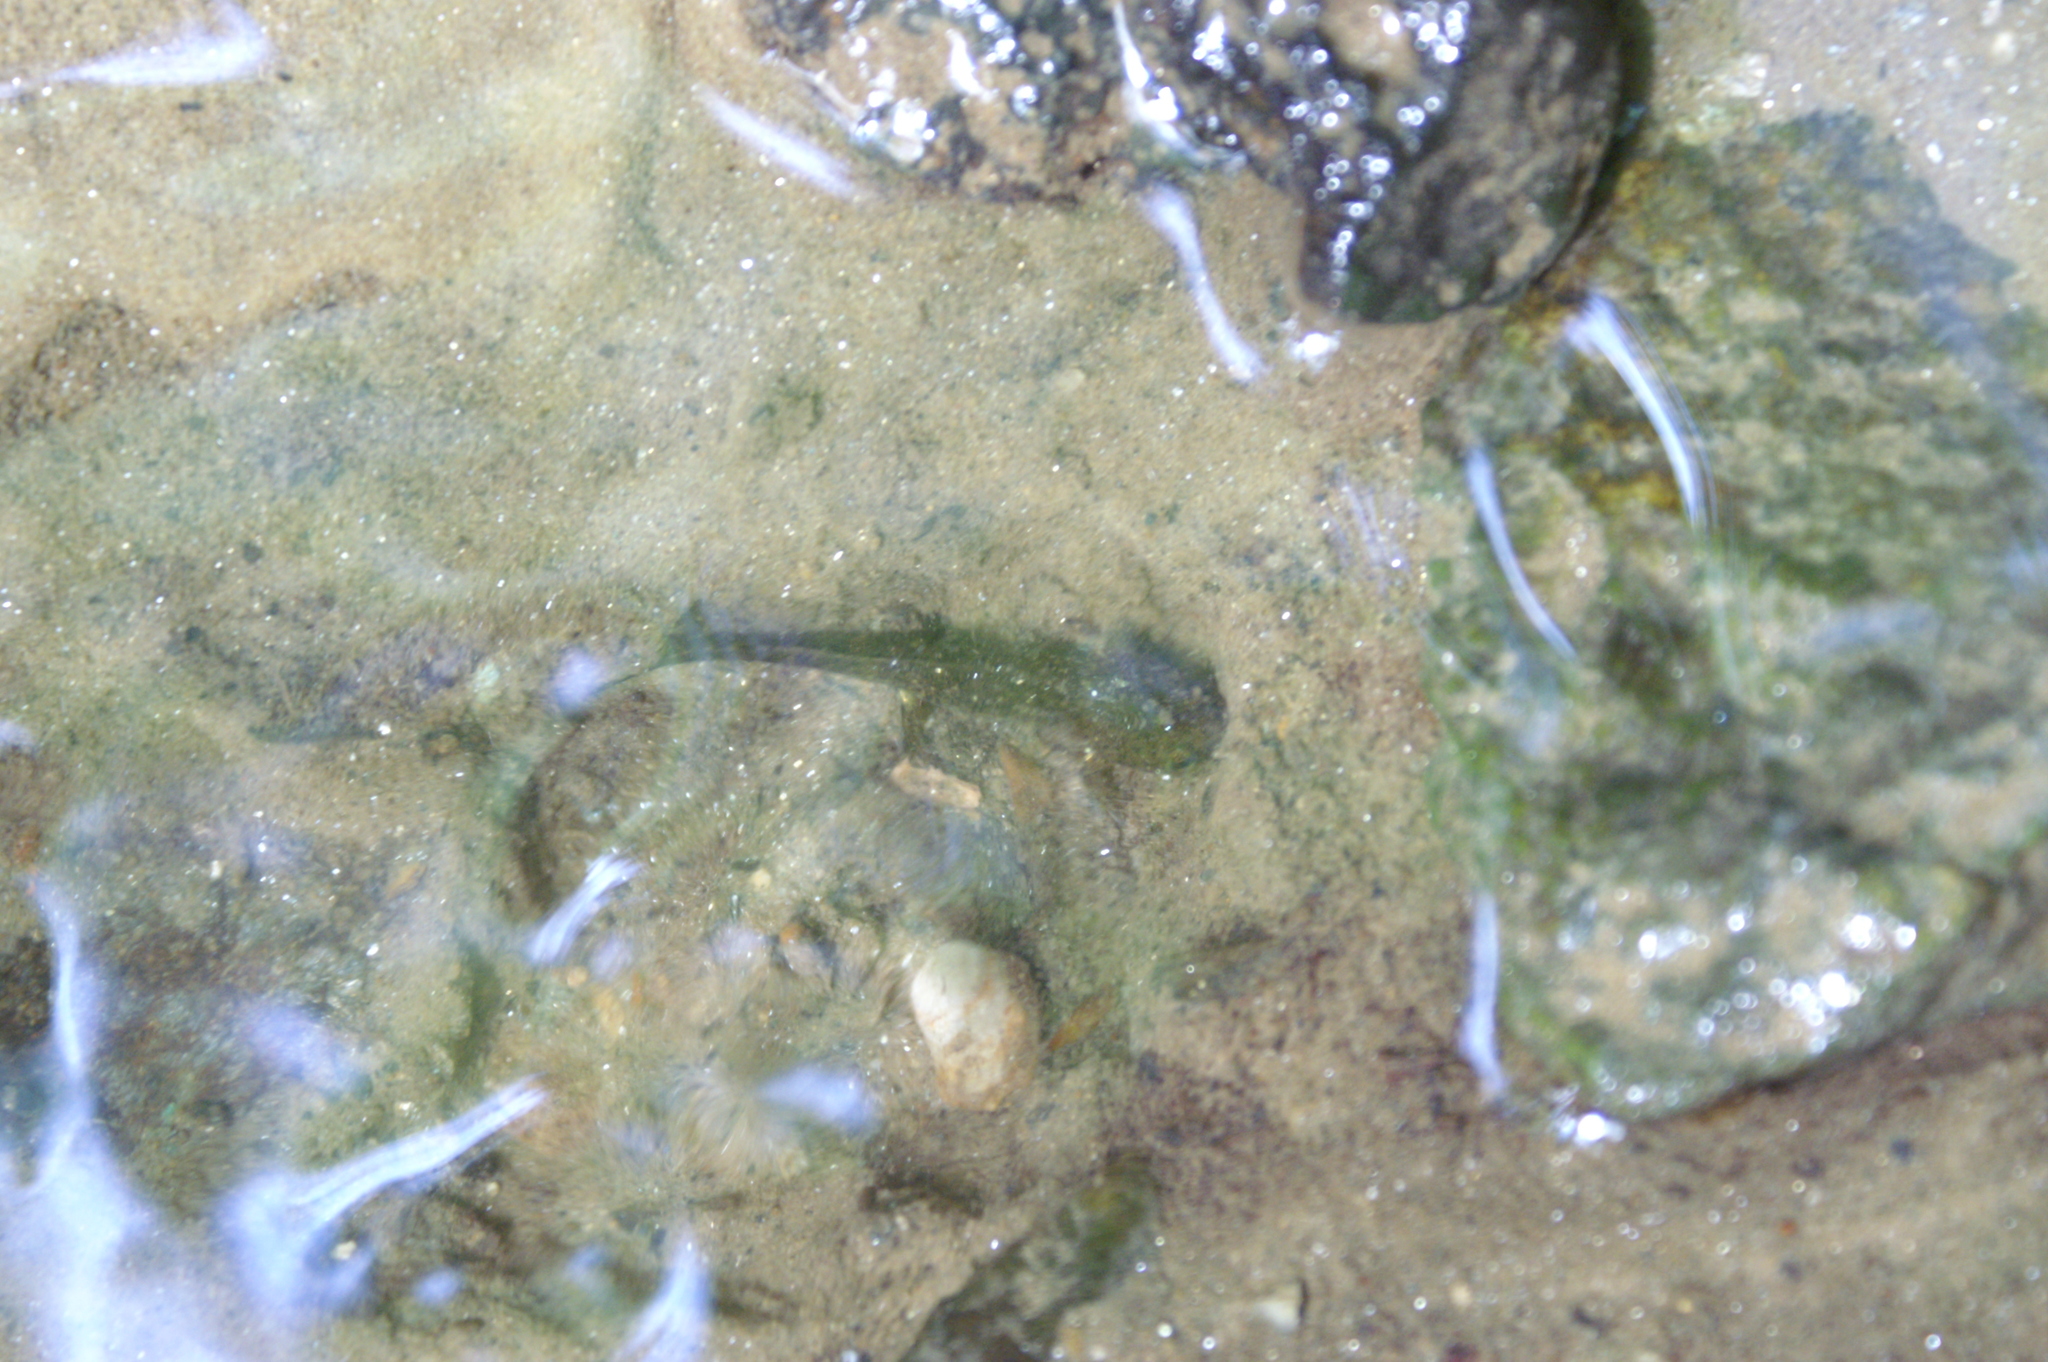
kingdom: Animalia
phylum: Chordata
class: Amphibia
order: Caudata
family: Salamandridae
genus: Salamandra
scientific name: Salamandra salamandra
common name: Fire salamander
